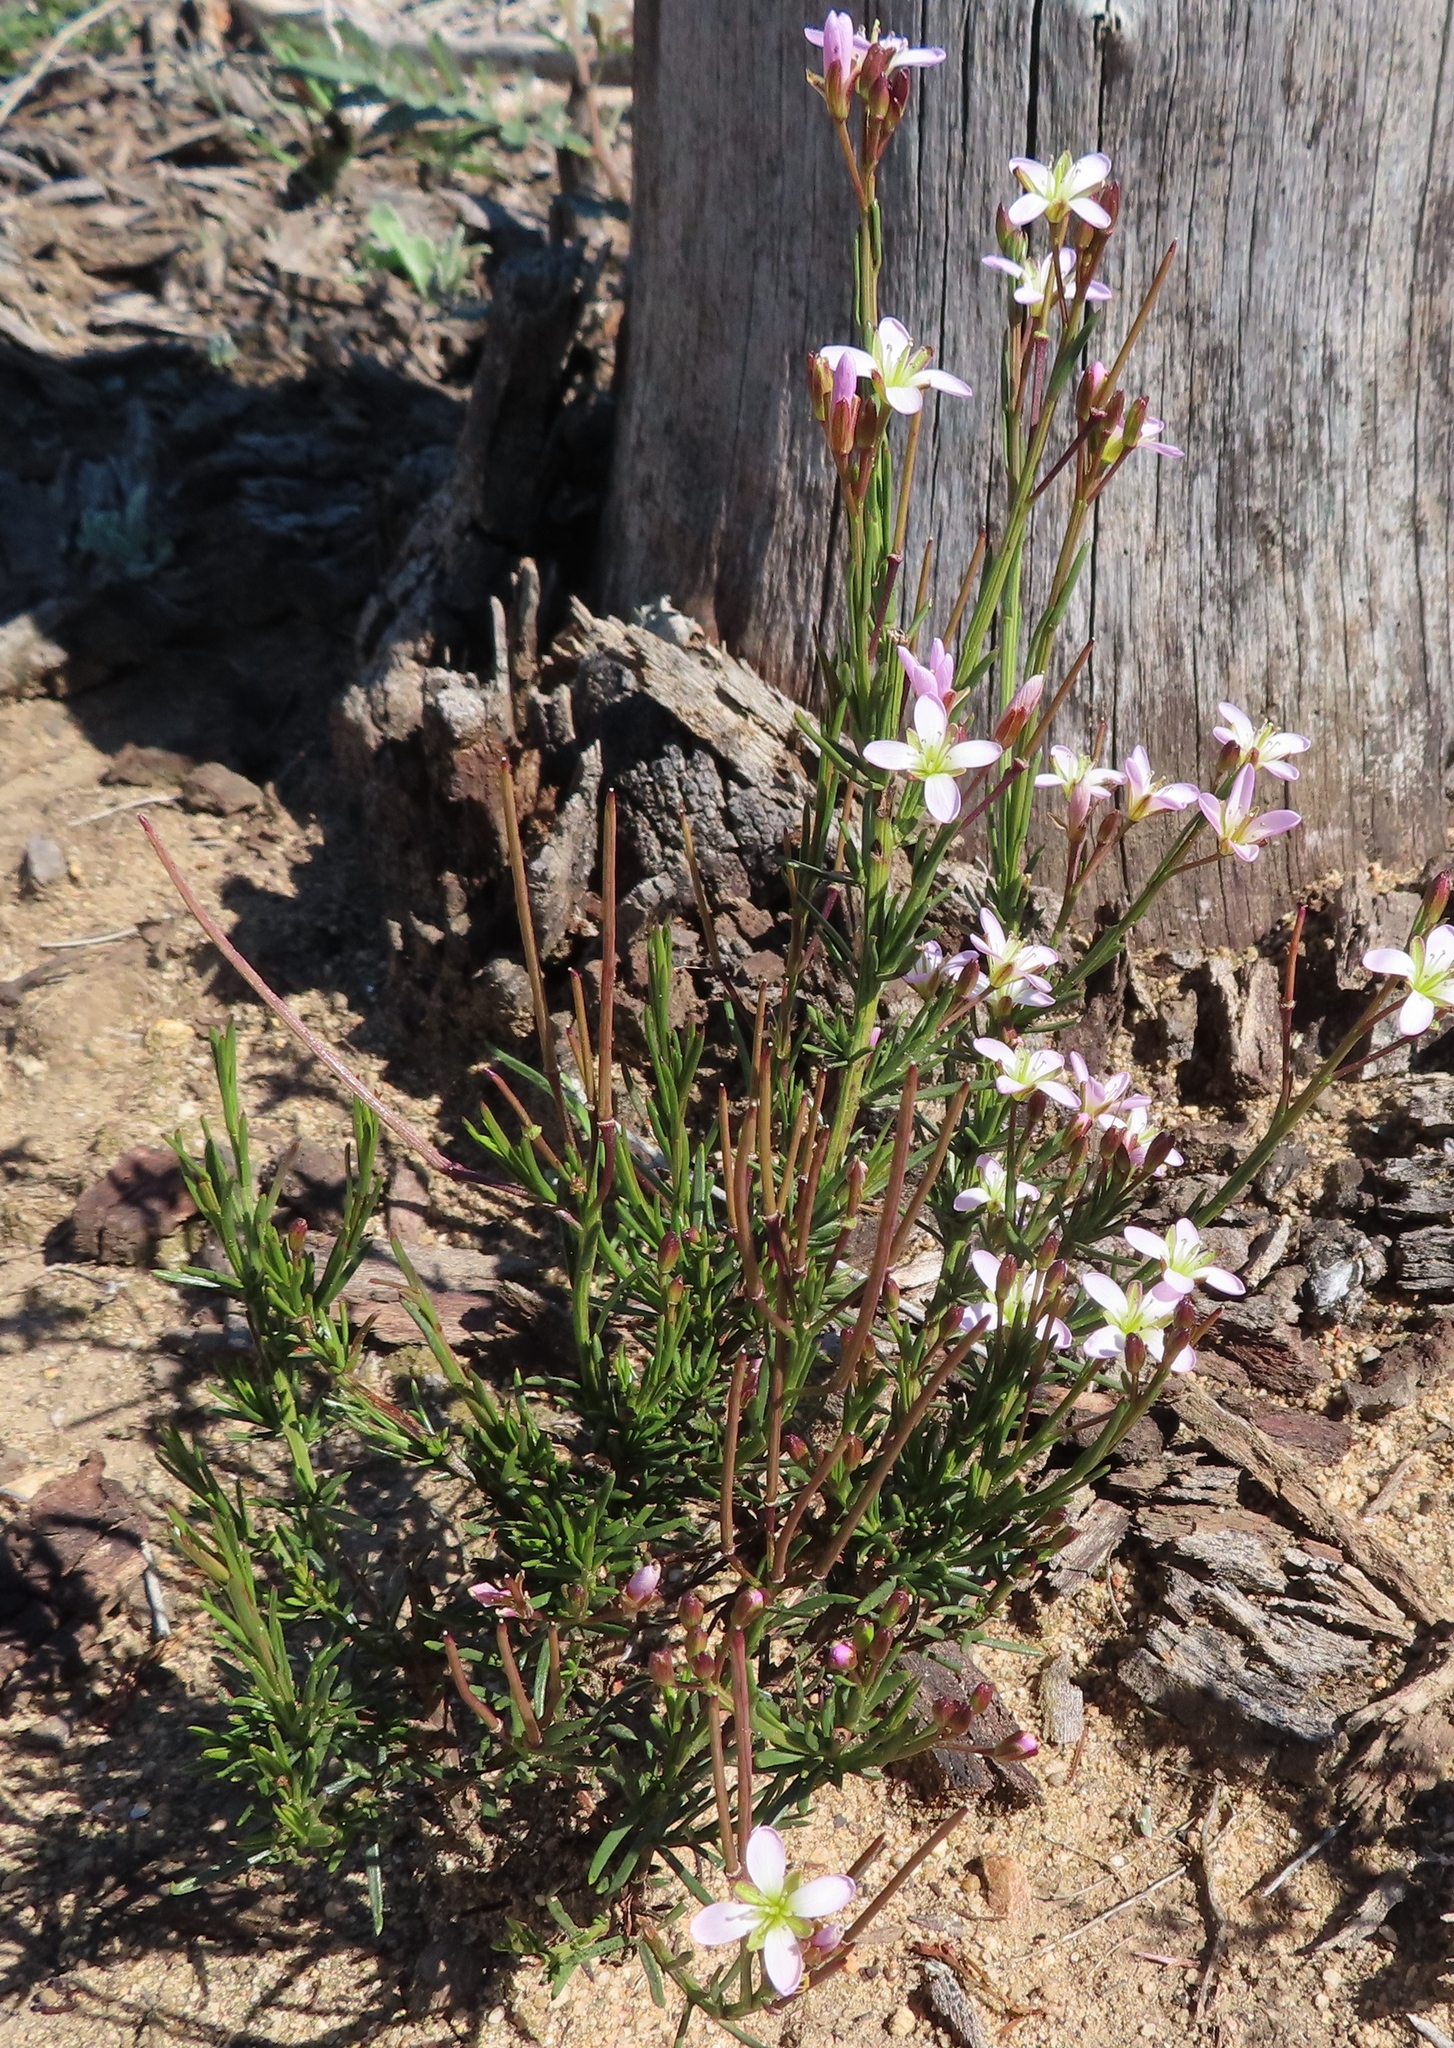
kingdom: Plantae
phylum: Tracheophyta
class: Magnoliopsida
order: Brassicales
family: Brassicaceae
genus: Heliophila
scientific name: Heliophila scoparia
